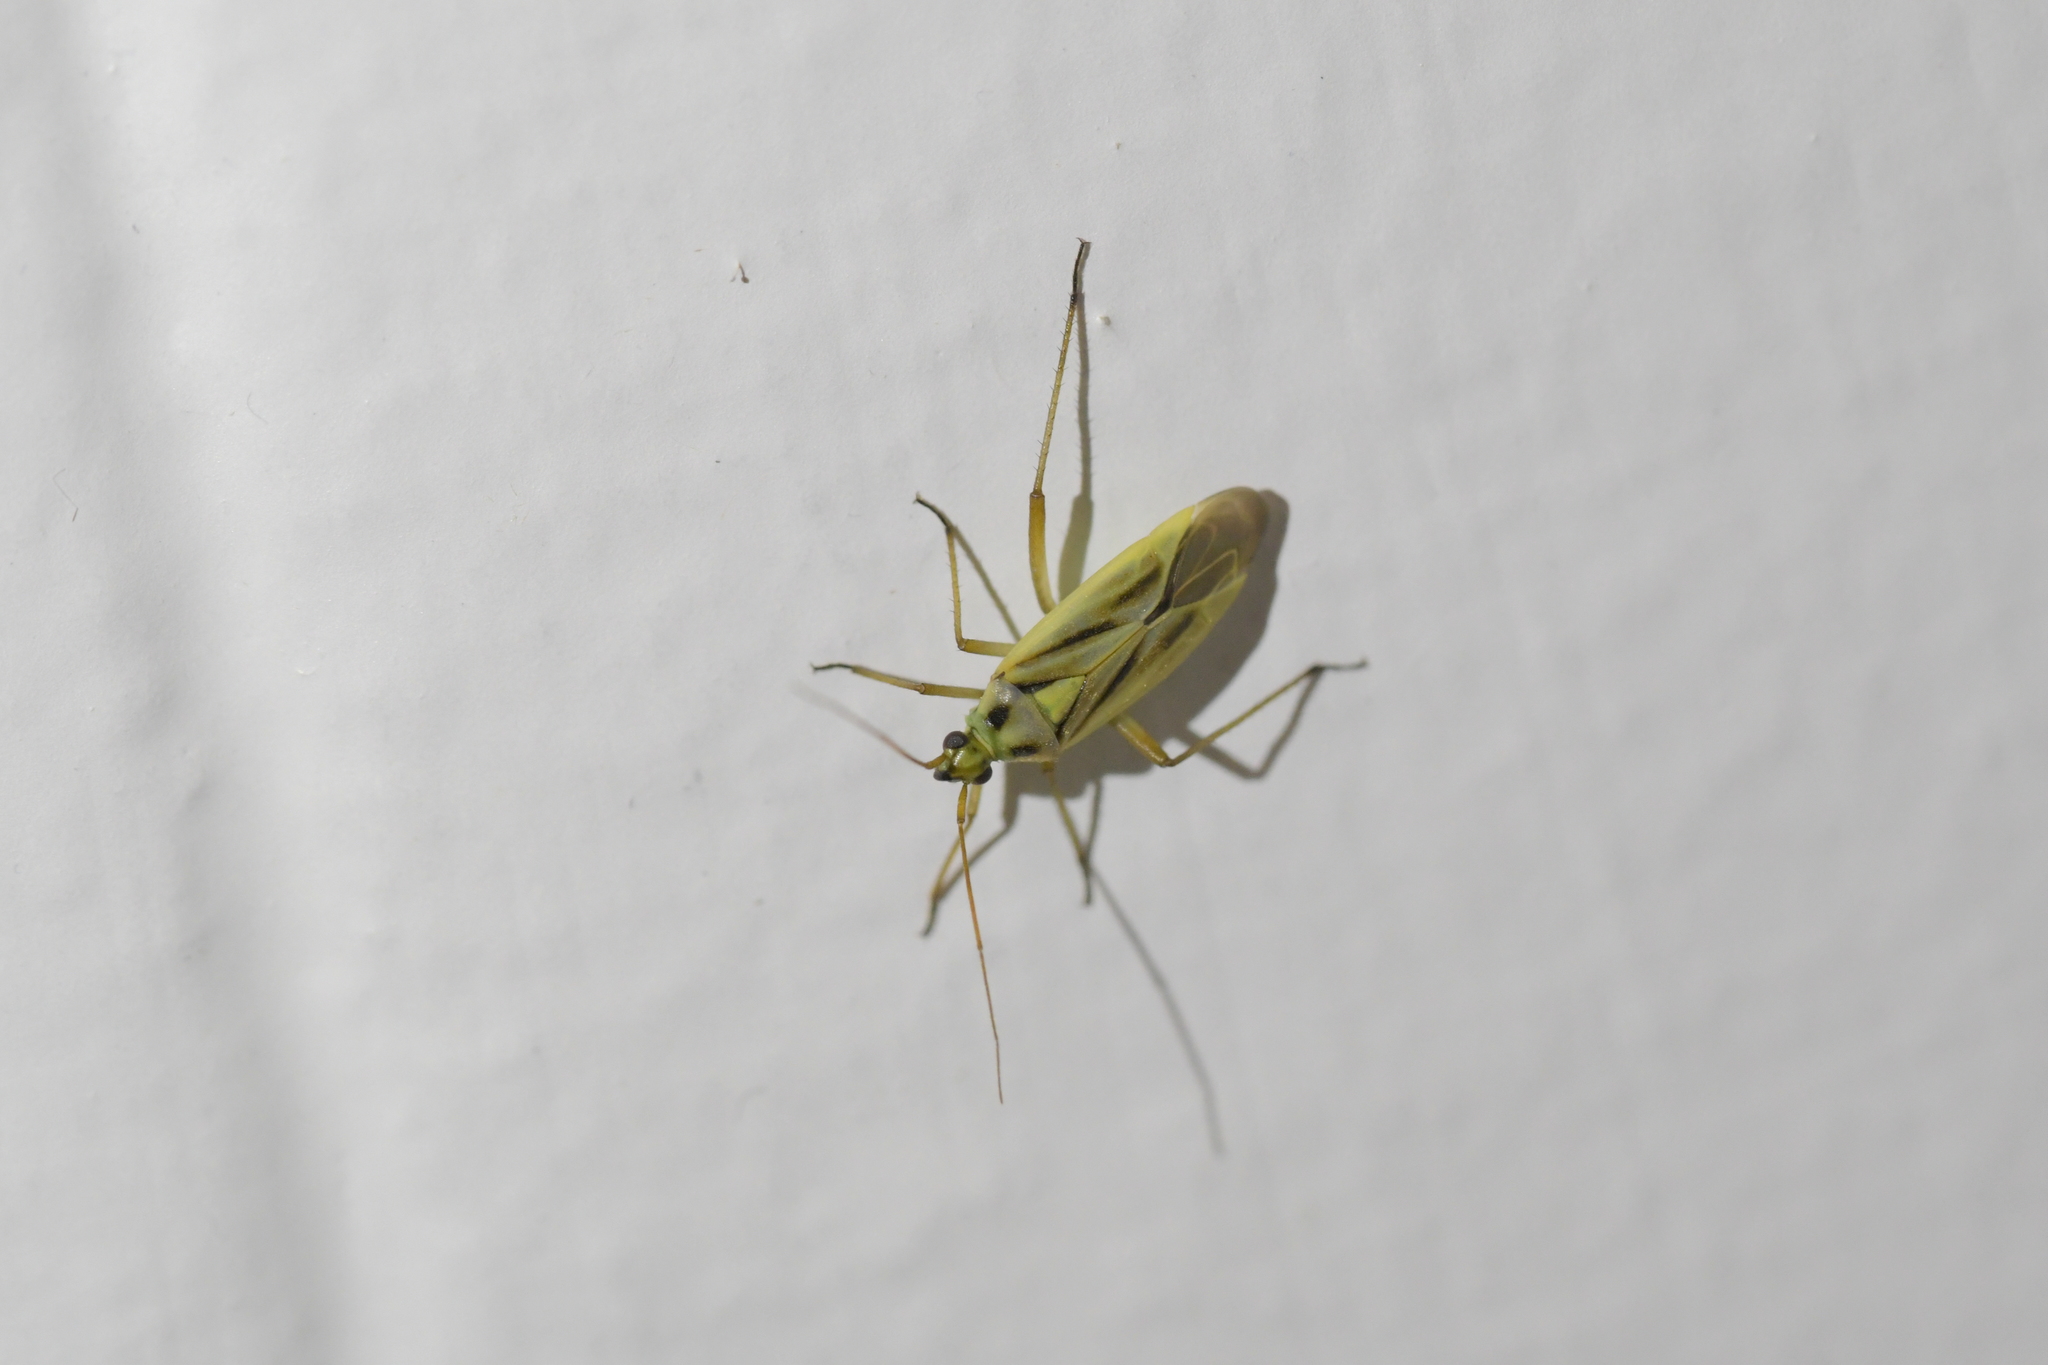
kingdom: Animalia
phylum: Arthropoda
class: Insecta
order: Hemiptera
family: Miridae
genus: Stenotus
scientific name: Stenotus binotatus
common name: Plant bug
